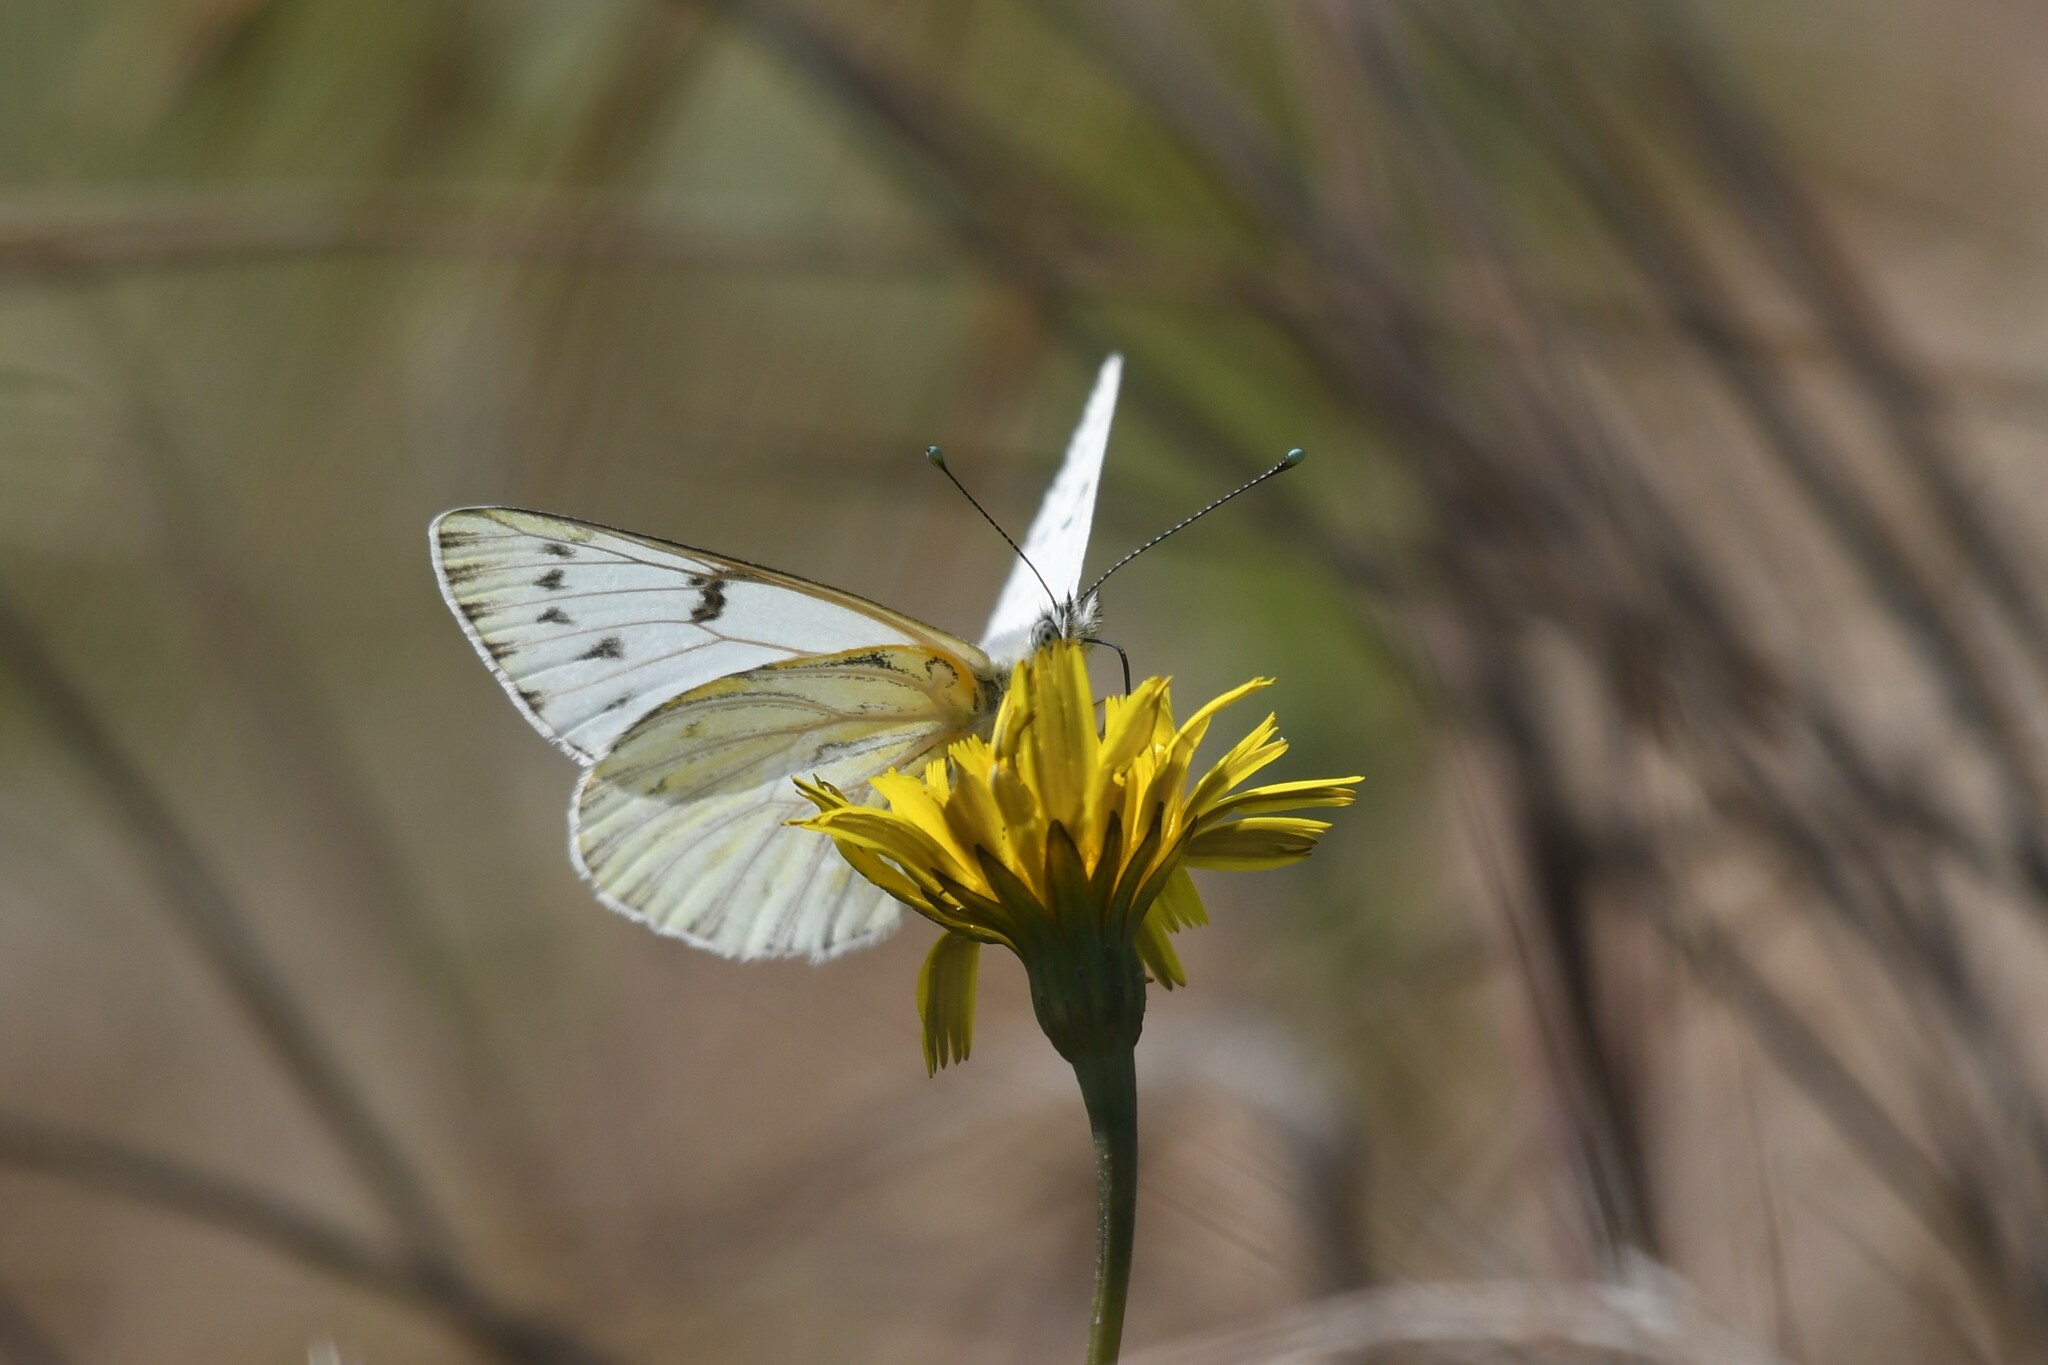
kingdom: Animalia
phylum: Arthropoda
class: Insecta
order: Lepidoptera
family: Pieridae
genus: Tatochila
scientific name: Tatochila mercedis
